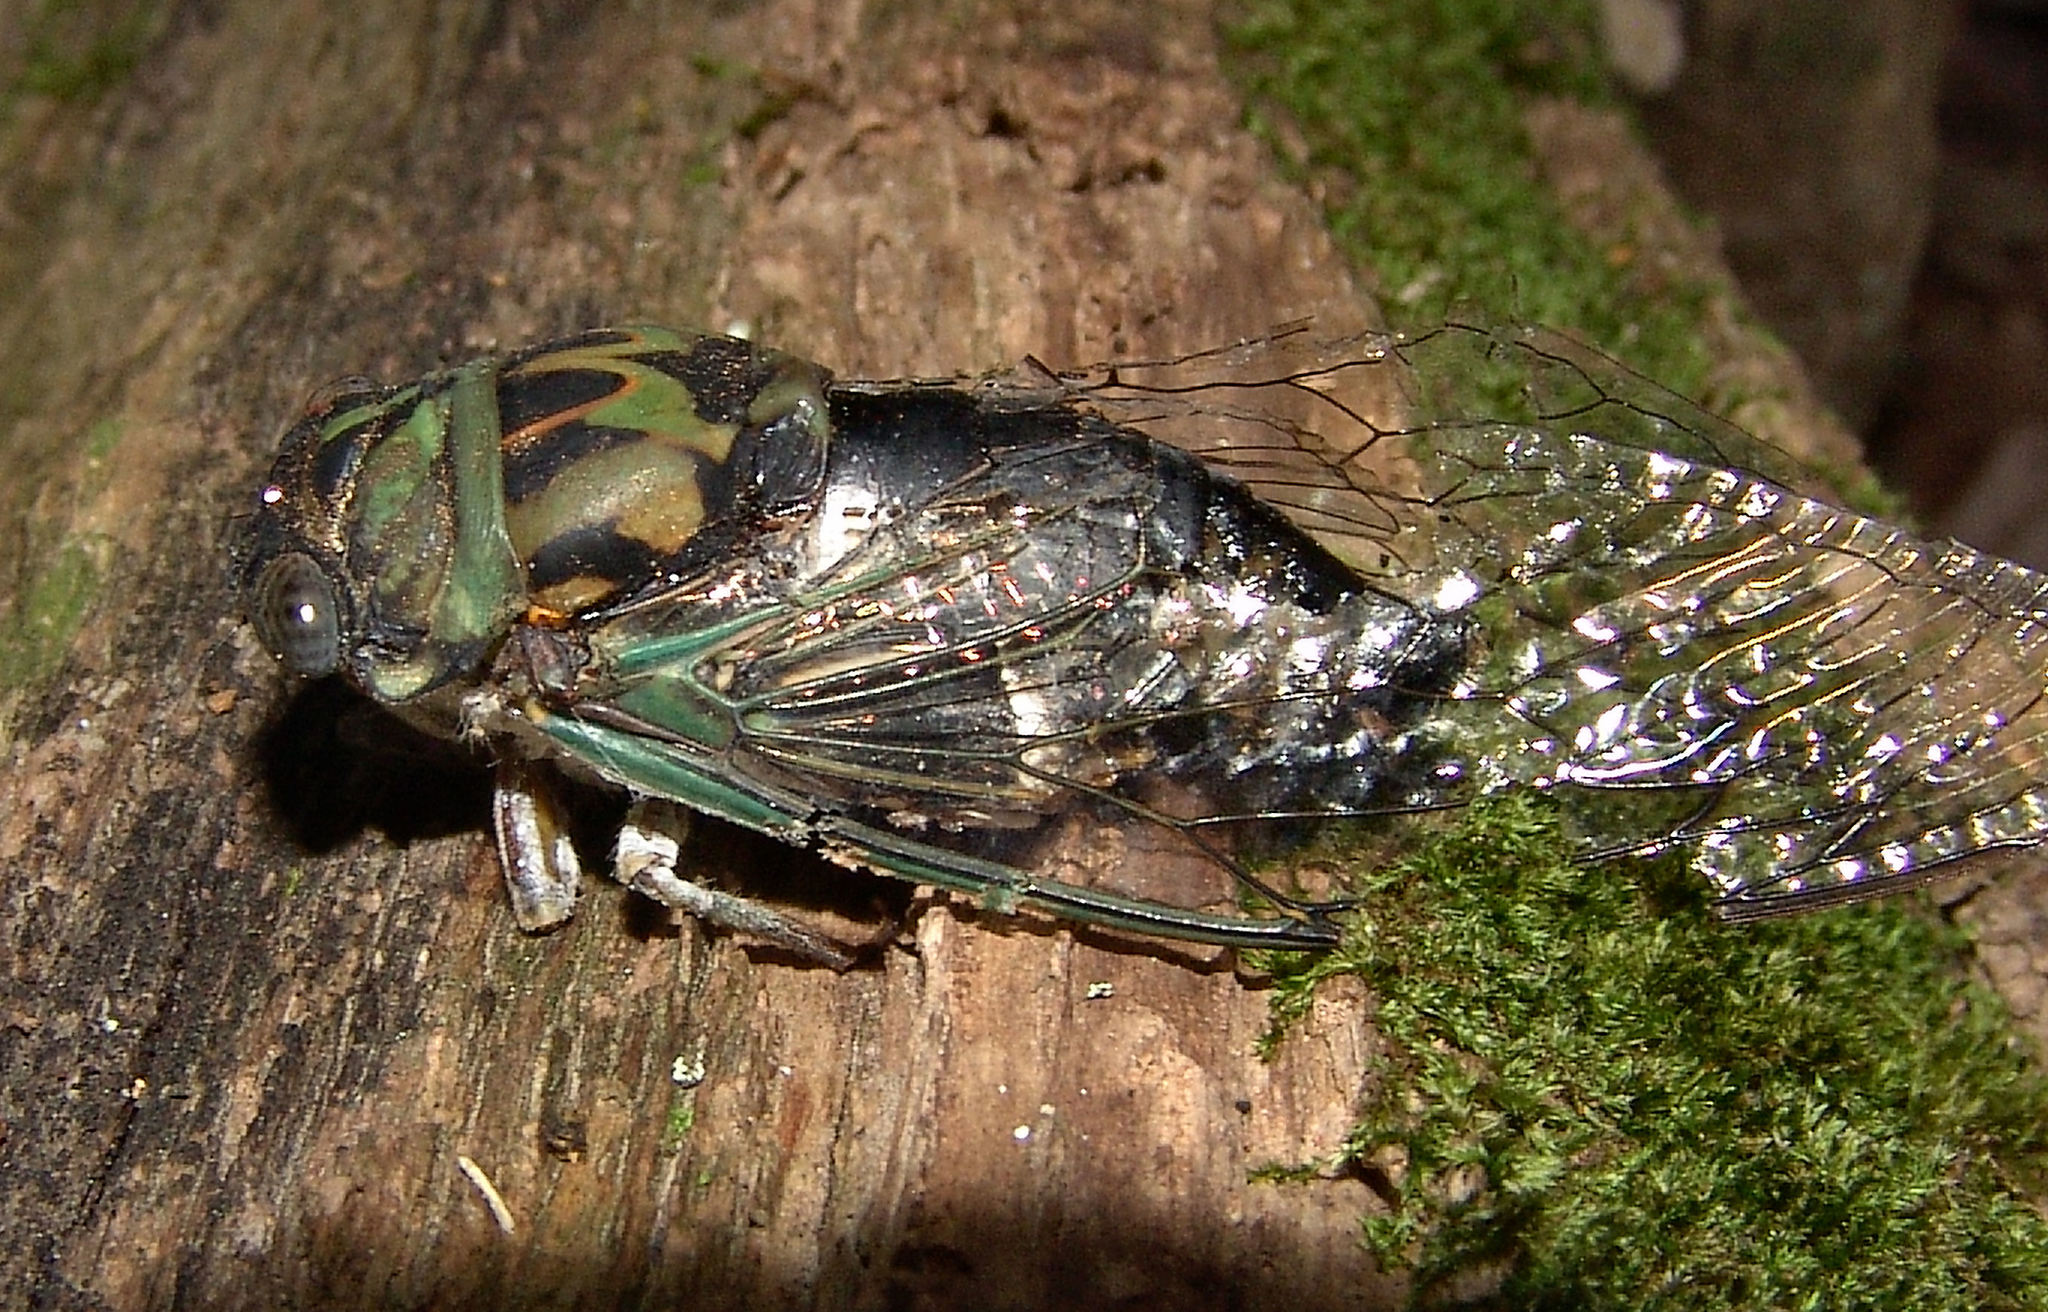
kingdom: Animalia
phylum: Arthropoda
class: Insecta
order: Hemiptera
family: Cicadidae
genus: Neotibicen
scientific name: Neotibicen pruinosus
